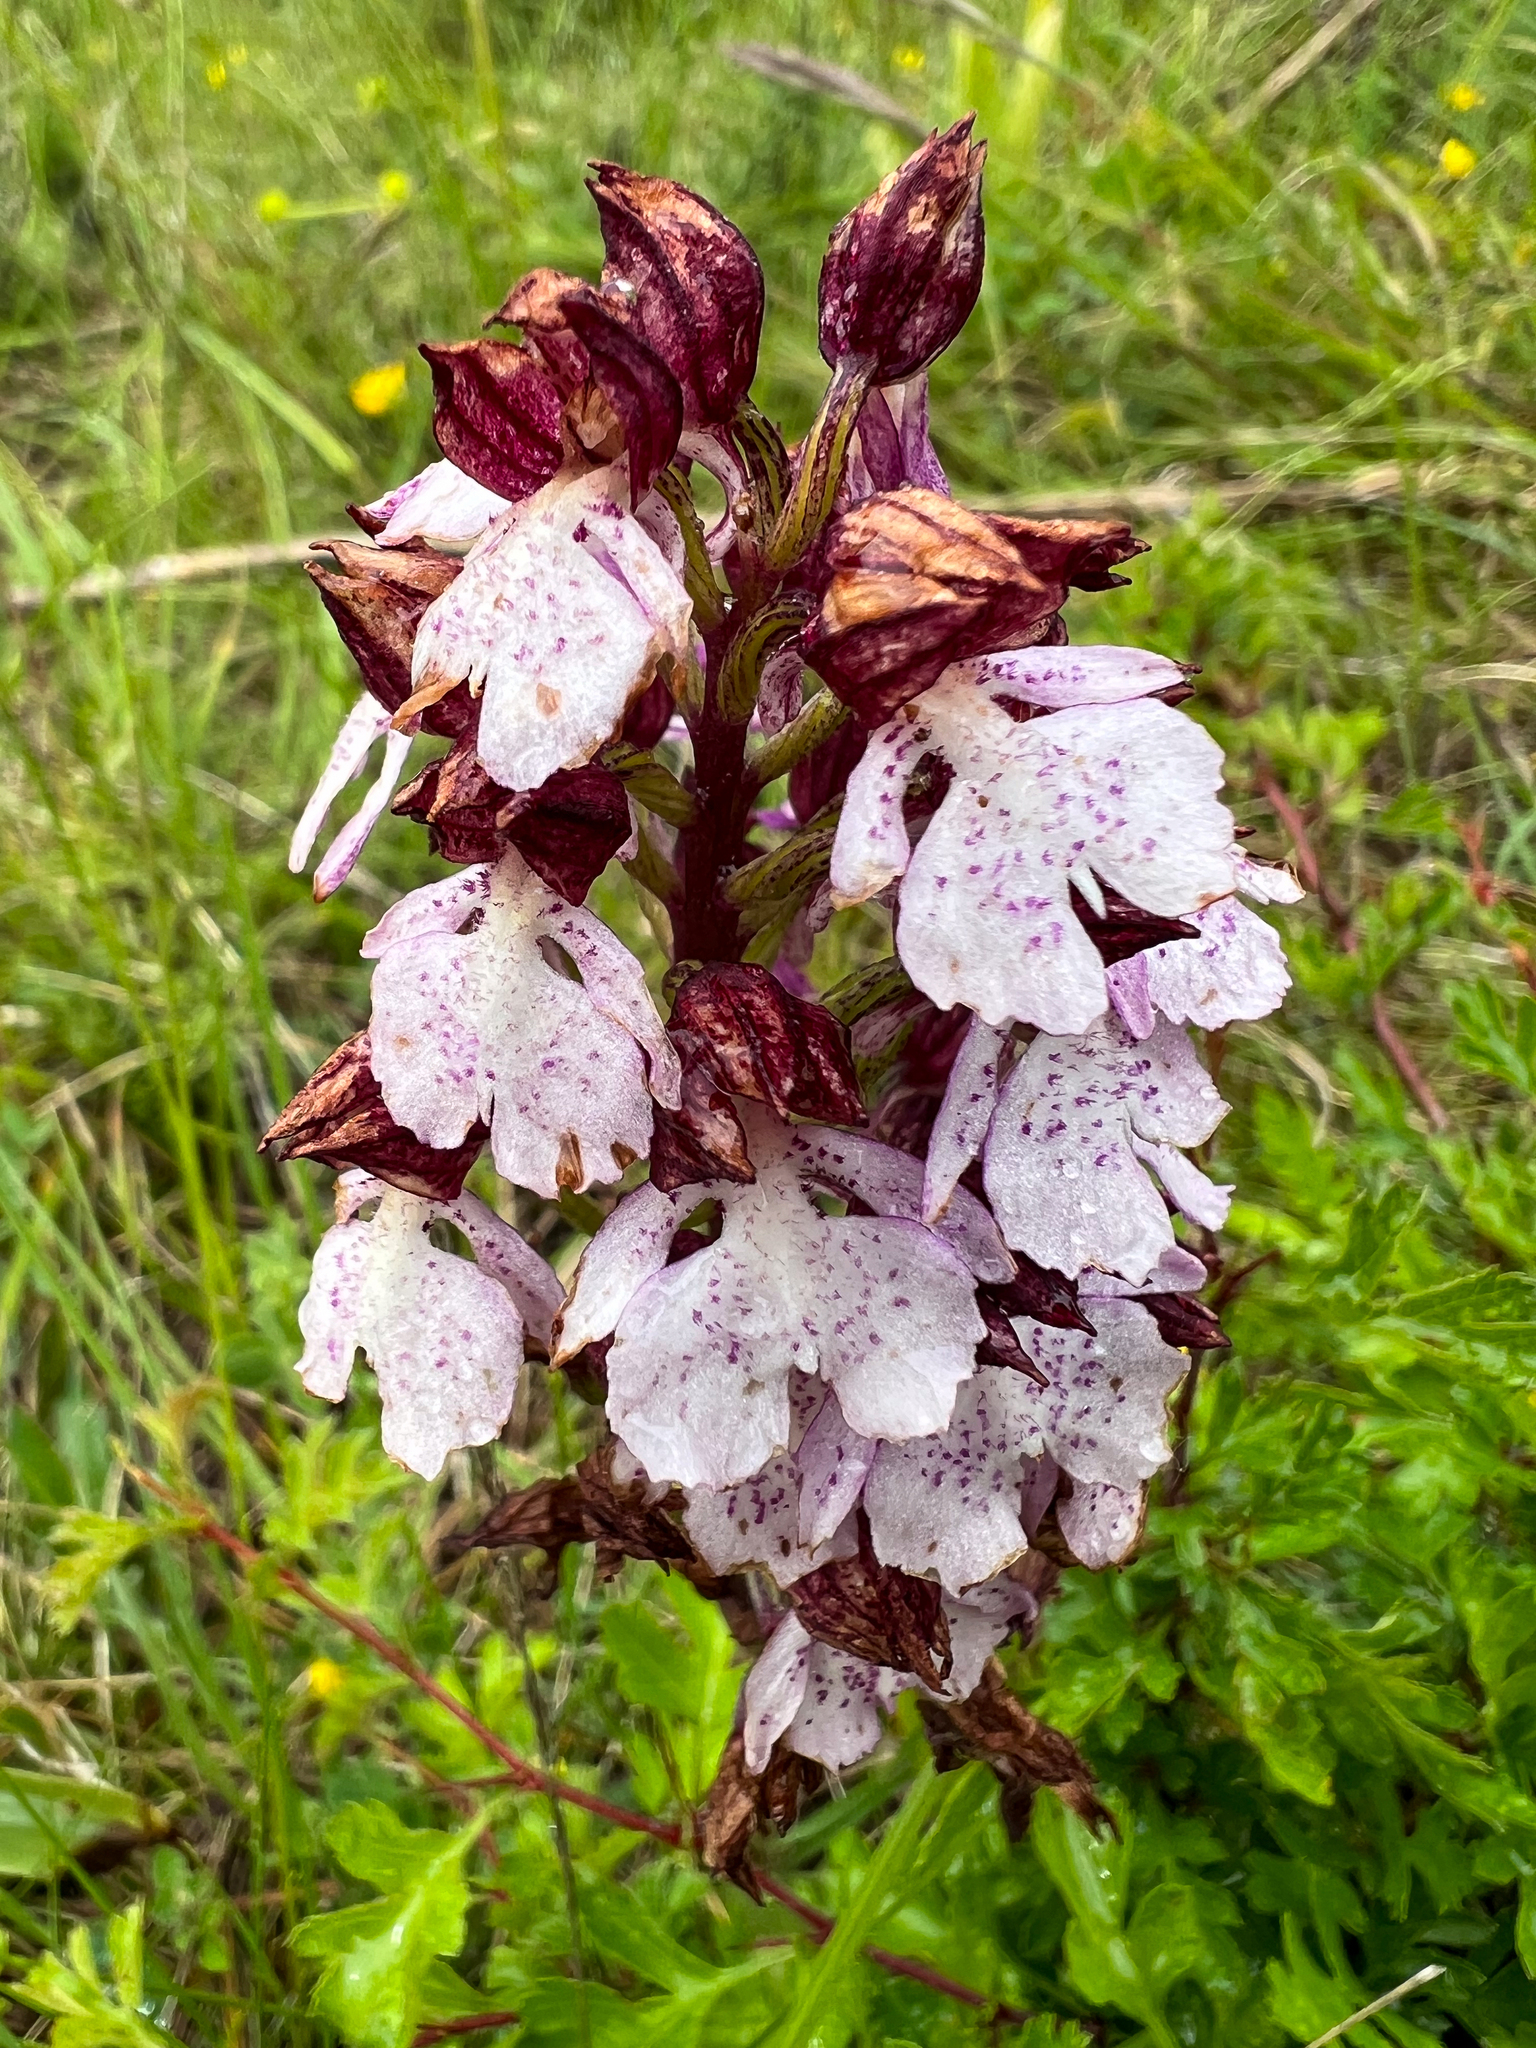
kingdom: Plantae
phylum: Tracheophyta
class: Liliopsida
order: Asparagales
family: Orchidaceae
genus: Orchis
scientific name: Orchis purpurea
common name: Lady orchid
